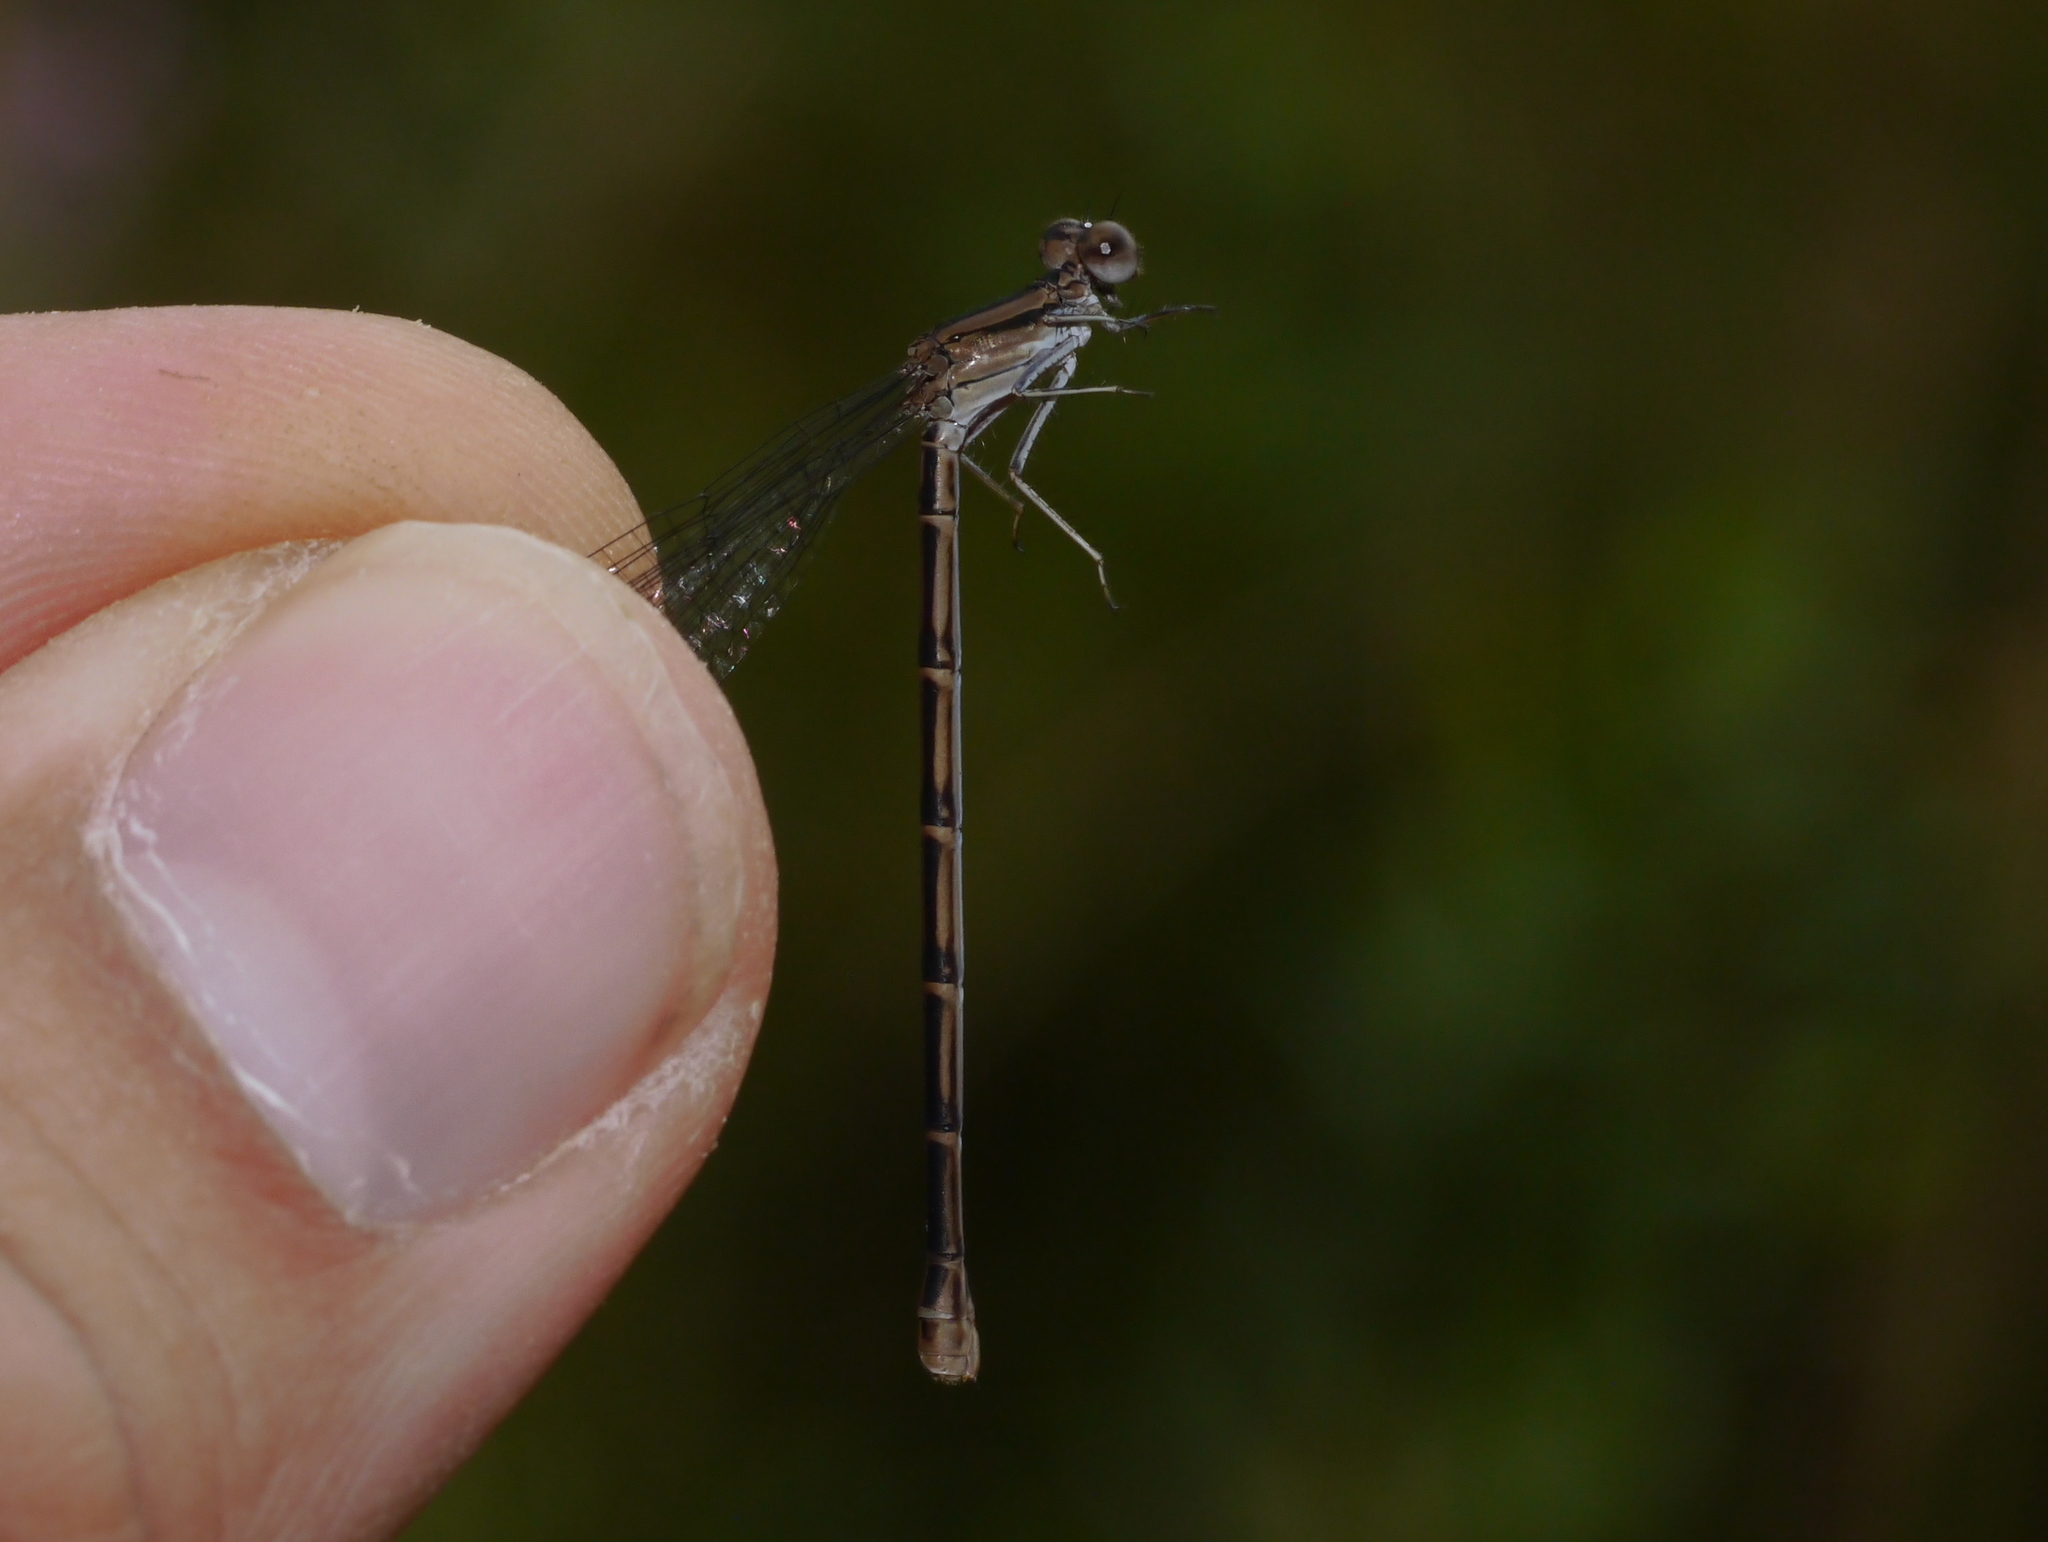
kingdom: Animalia
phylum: Arthropoda
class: Insecta
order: Odonata
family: Coenagrionidae
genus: Argia
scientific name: Argia fumipennis
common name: Variable dancer
